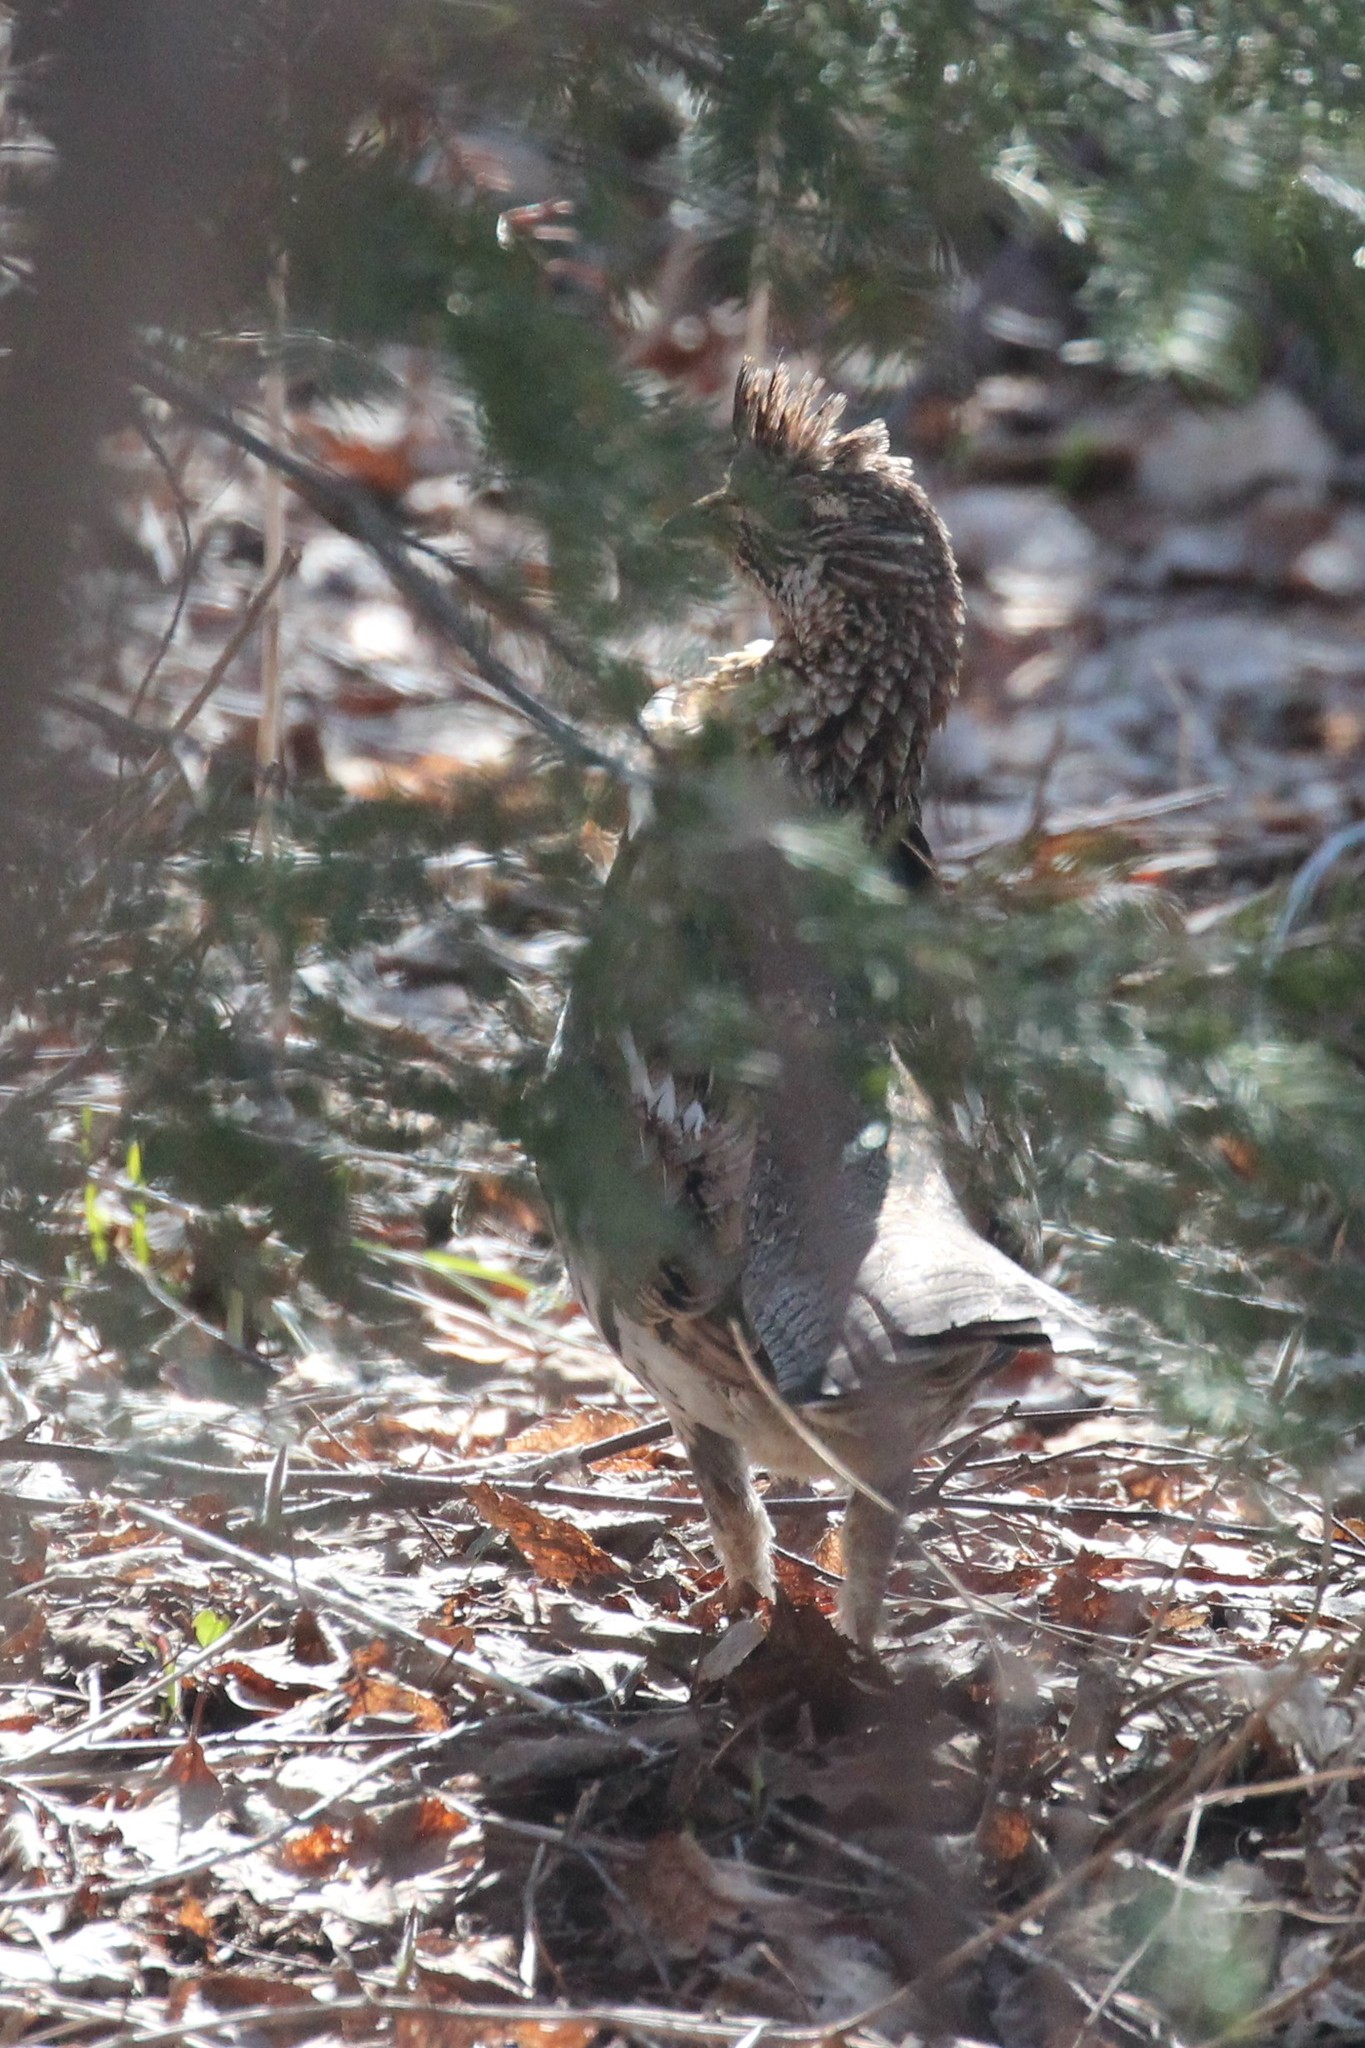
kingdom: Animalia
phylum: Chordata
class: Aves
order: Galliformes
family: Phasianidae
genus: Bonasa
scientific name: Bonasa umbellus
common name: Ruffed grouse
